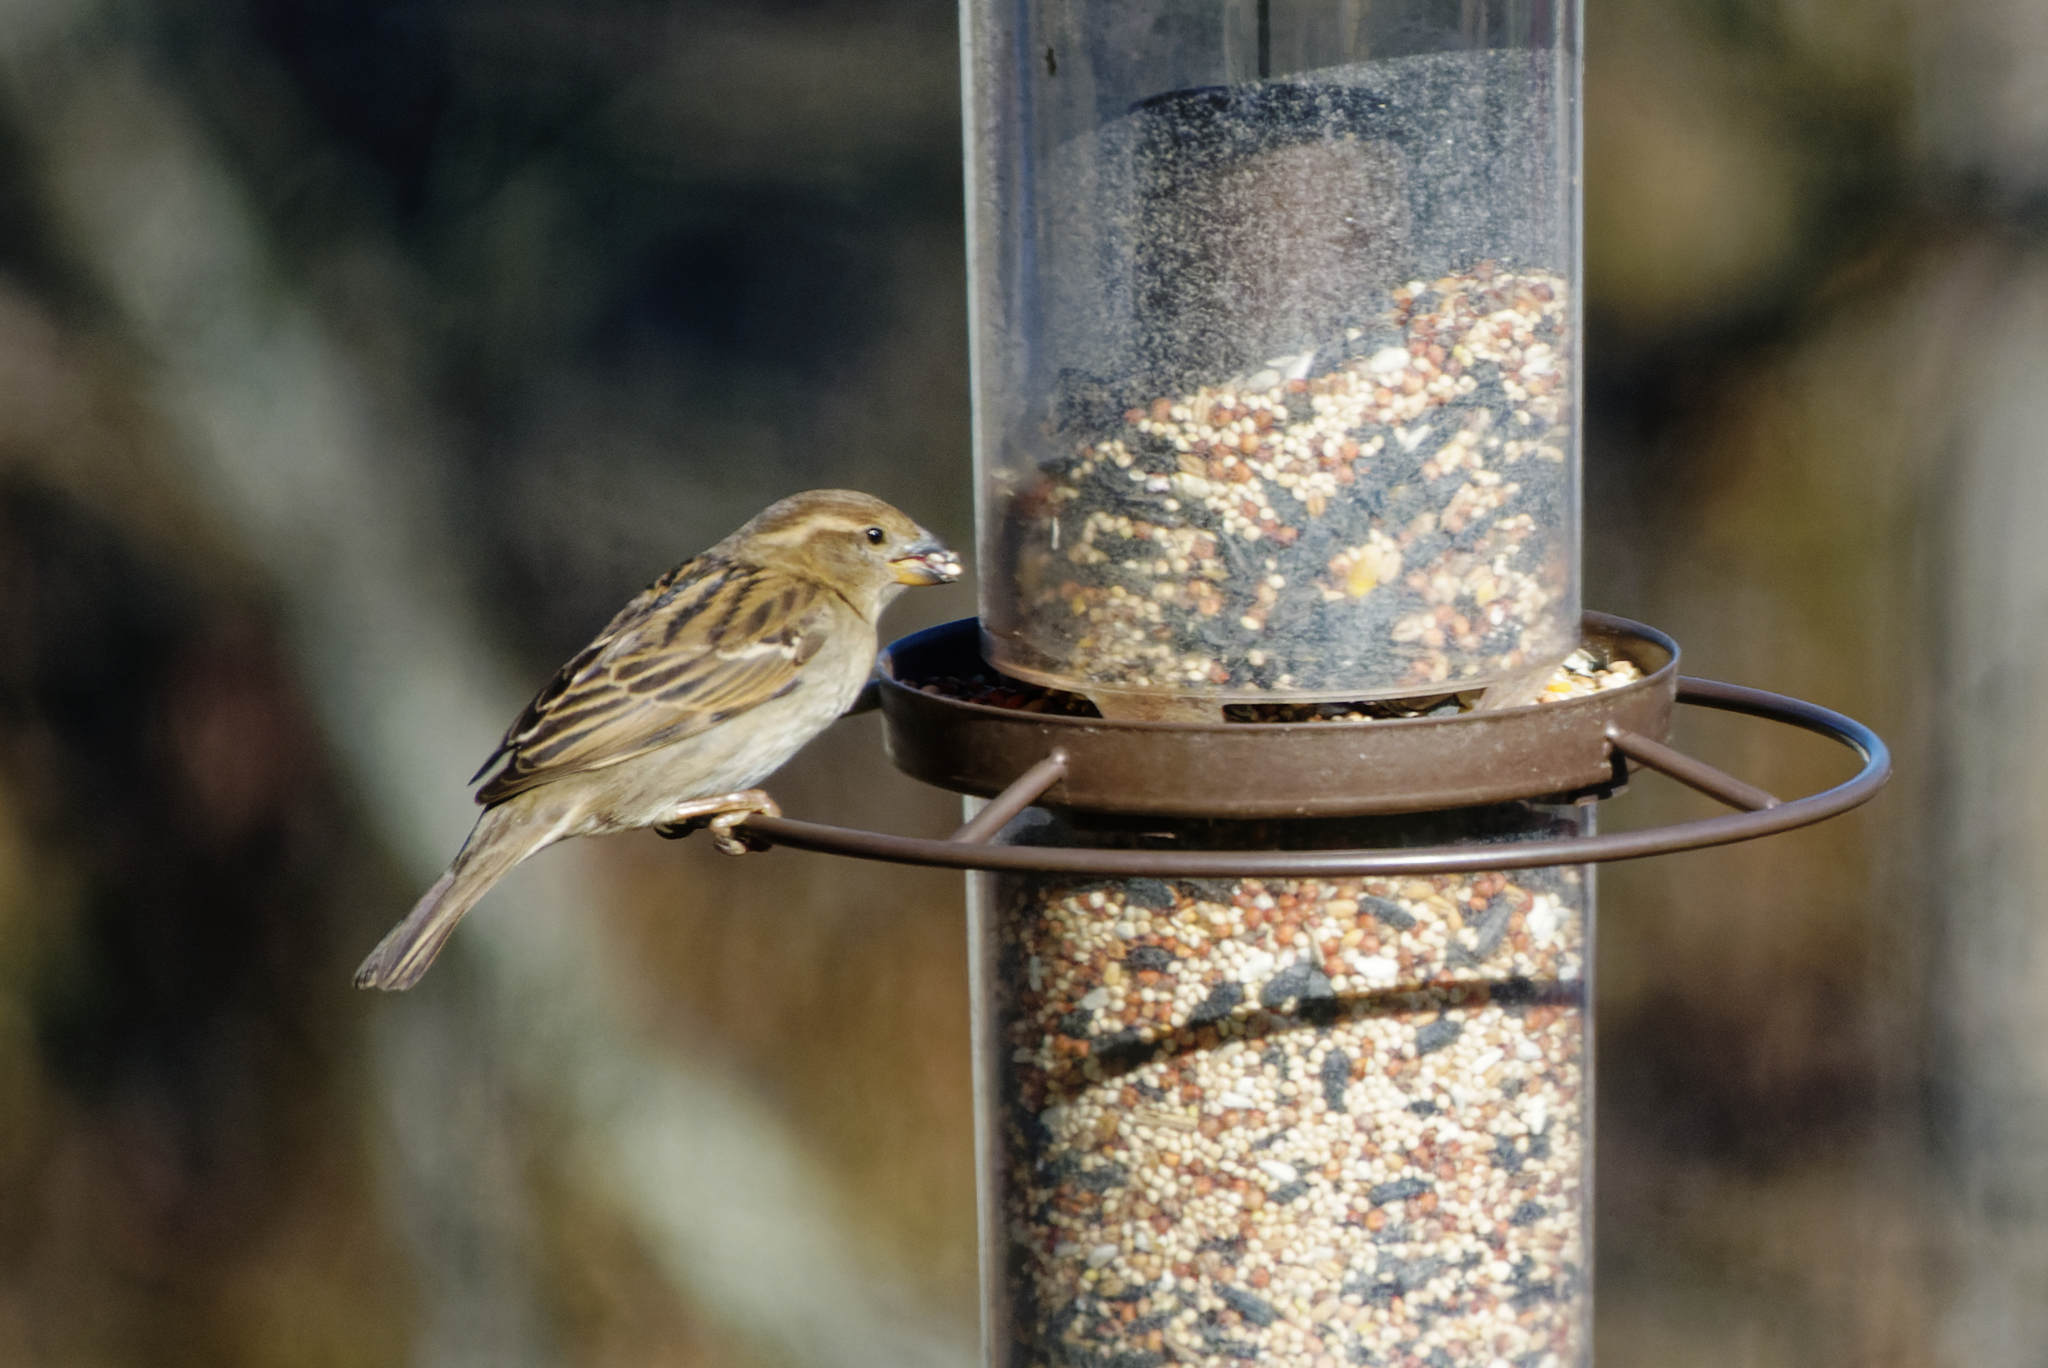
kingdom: Animalia
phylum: Chordata
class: Aves
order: Passeriformes
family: Passeridae
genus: Passer
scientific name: Passer domesticus
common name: House sparrow
